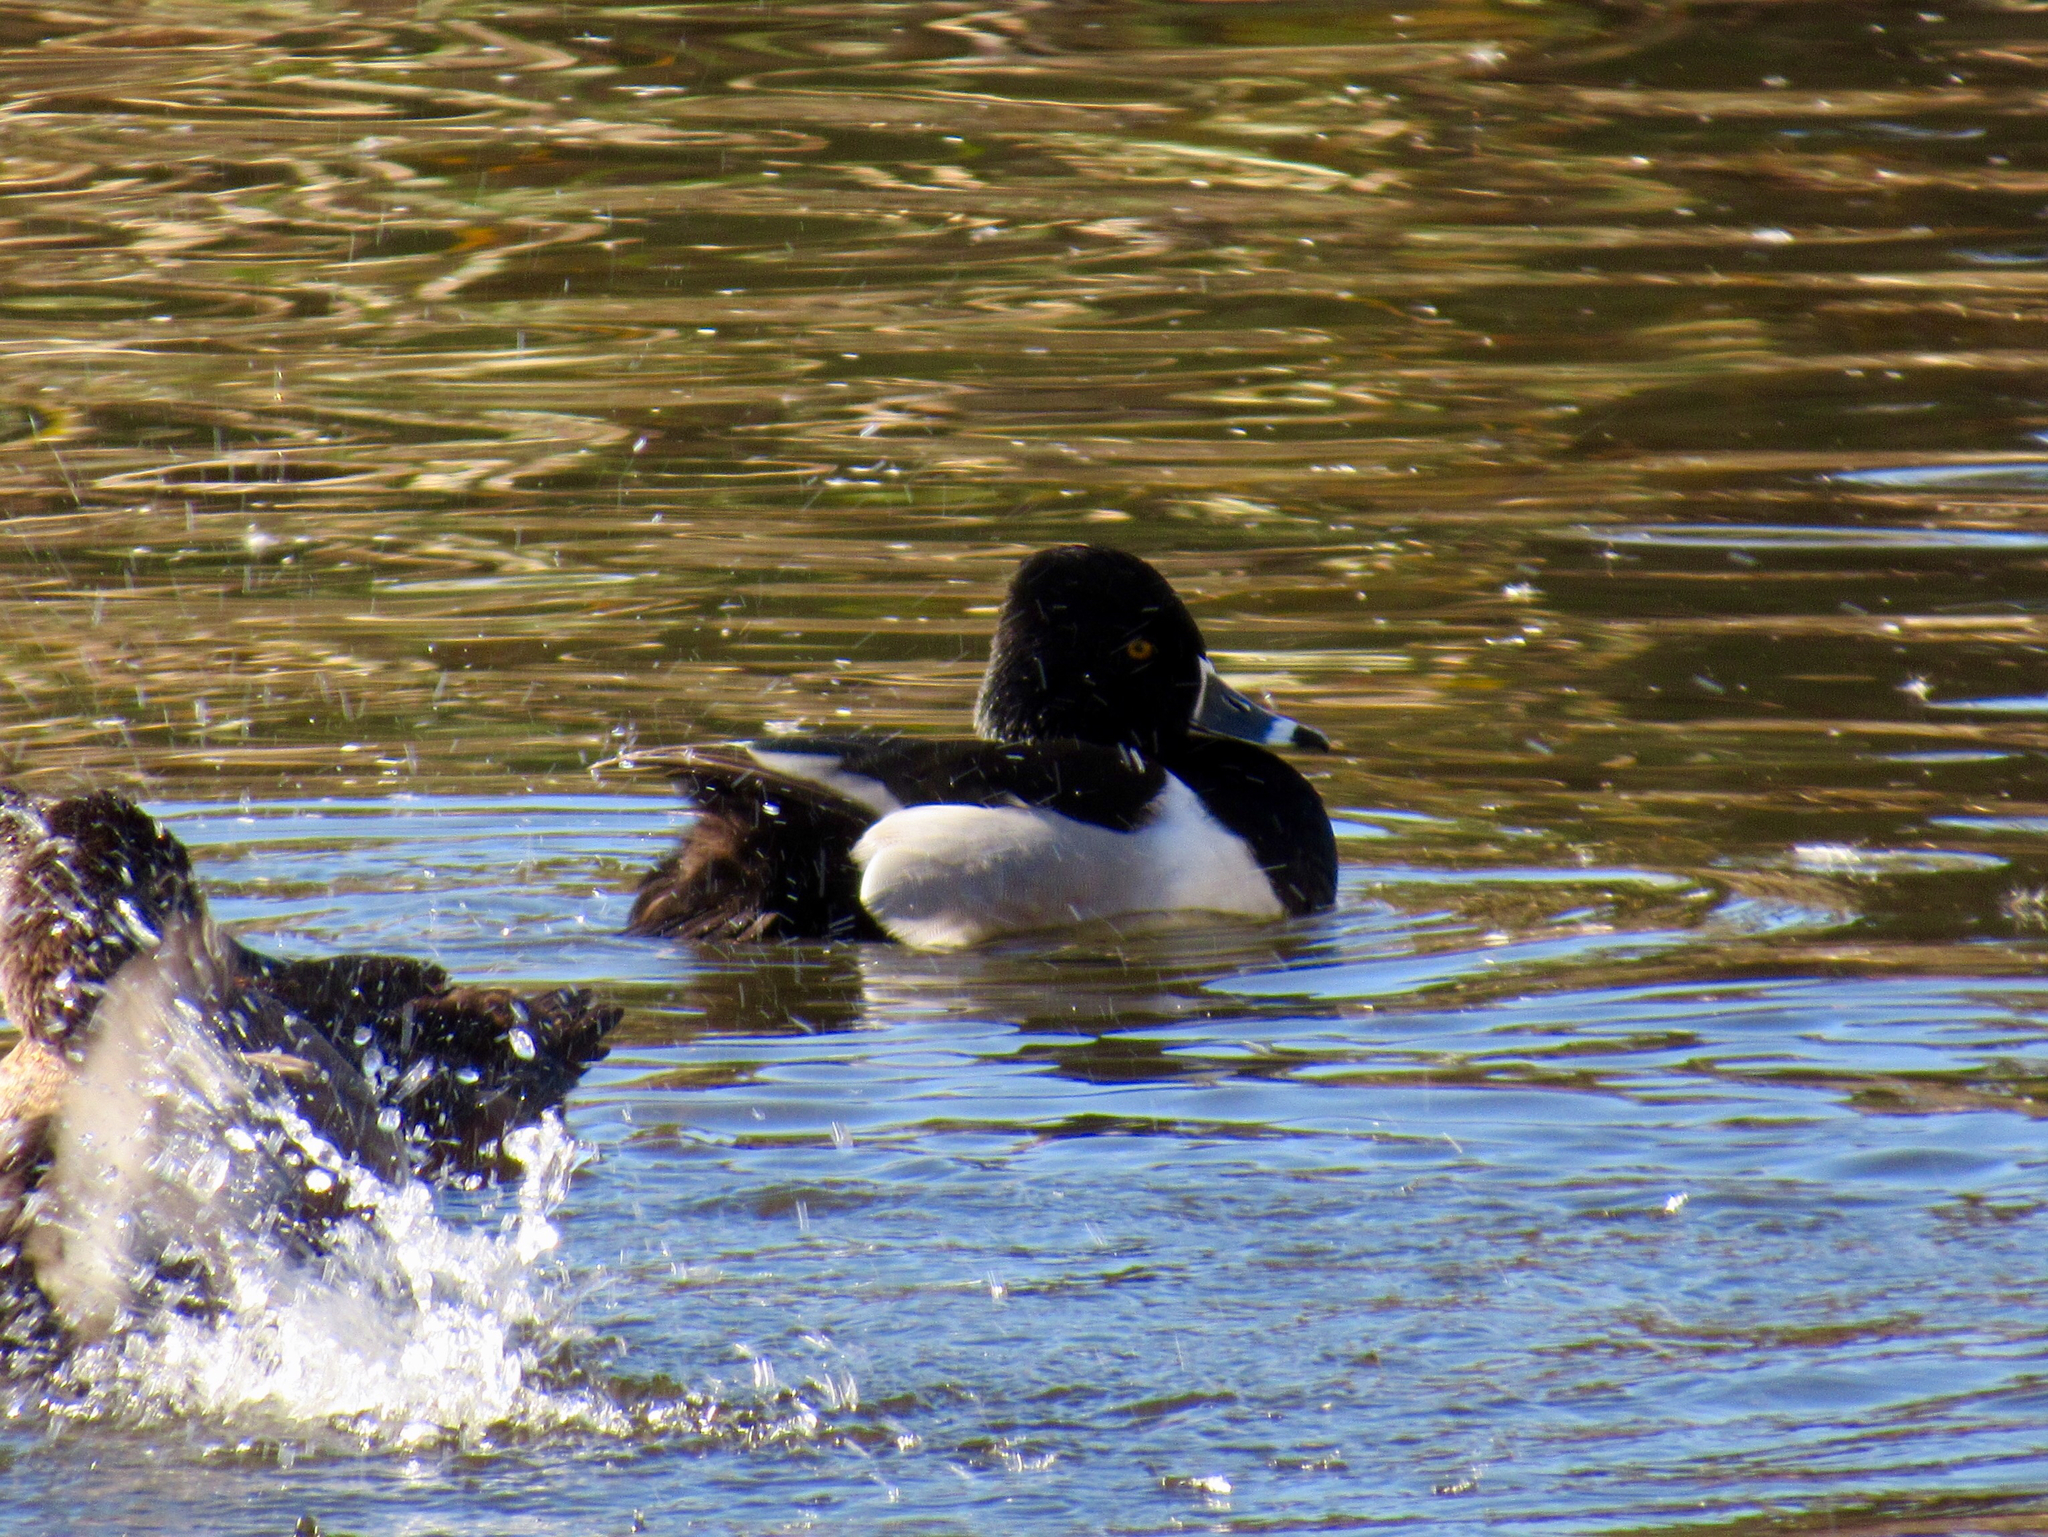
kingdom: Animalia
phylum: Chordata
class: Aves
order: Anseriformes
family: Anatidae
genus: Aythya
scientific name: Aythya collaris
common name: Ring-necked duck
